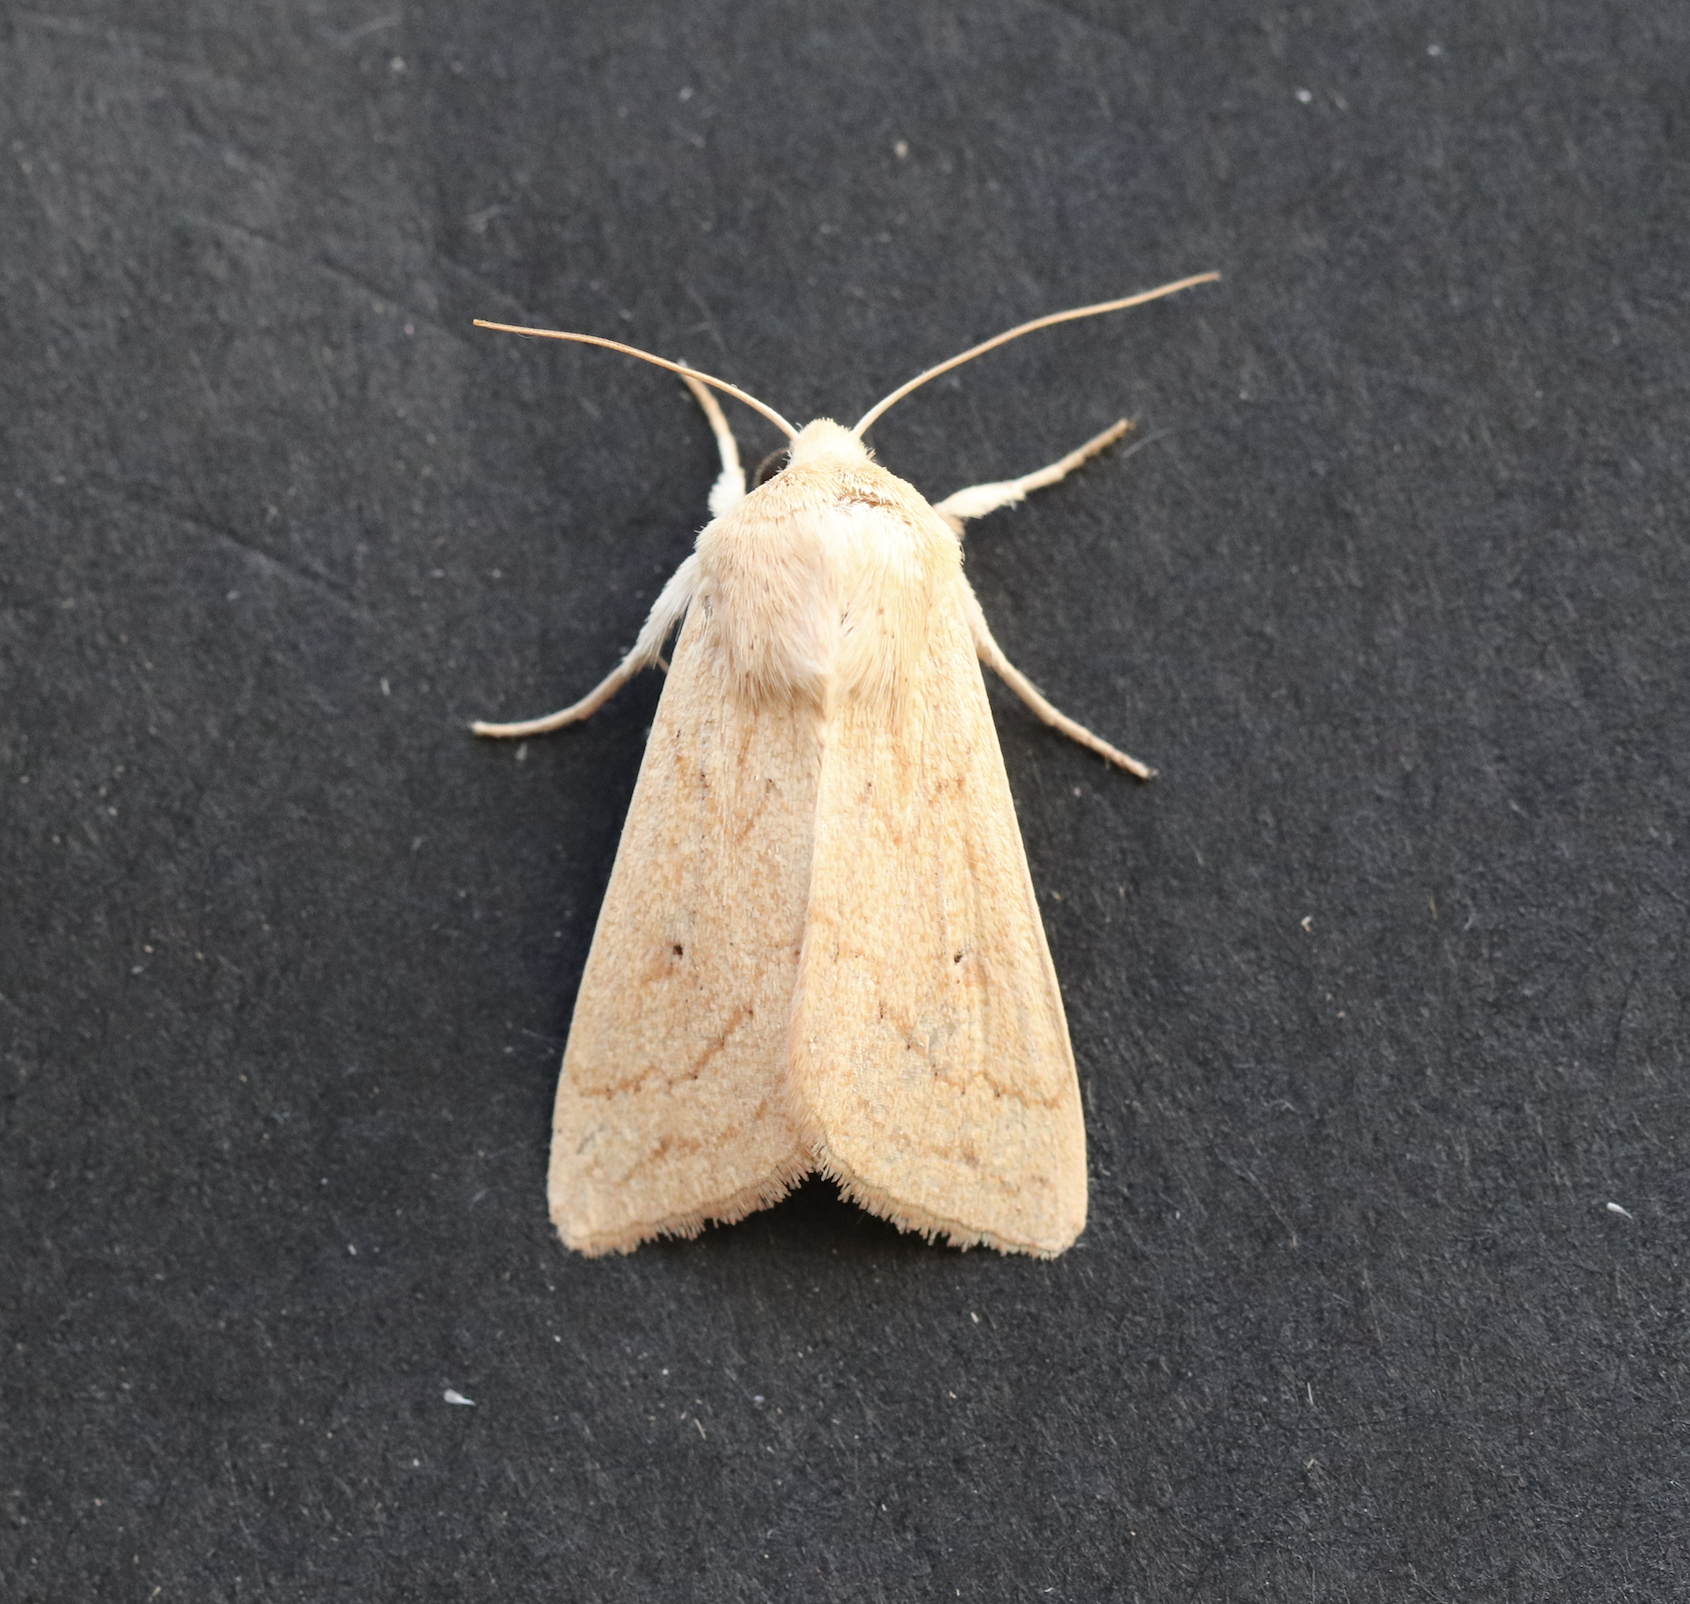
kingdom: Animalia
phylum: Arthropoda
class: Insecta
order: Lepidoptera
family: Noctuidae
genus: Mythimna
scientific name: Mythimna vitellina
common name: Delicate
